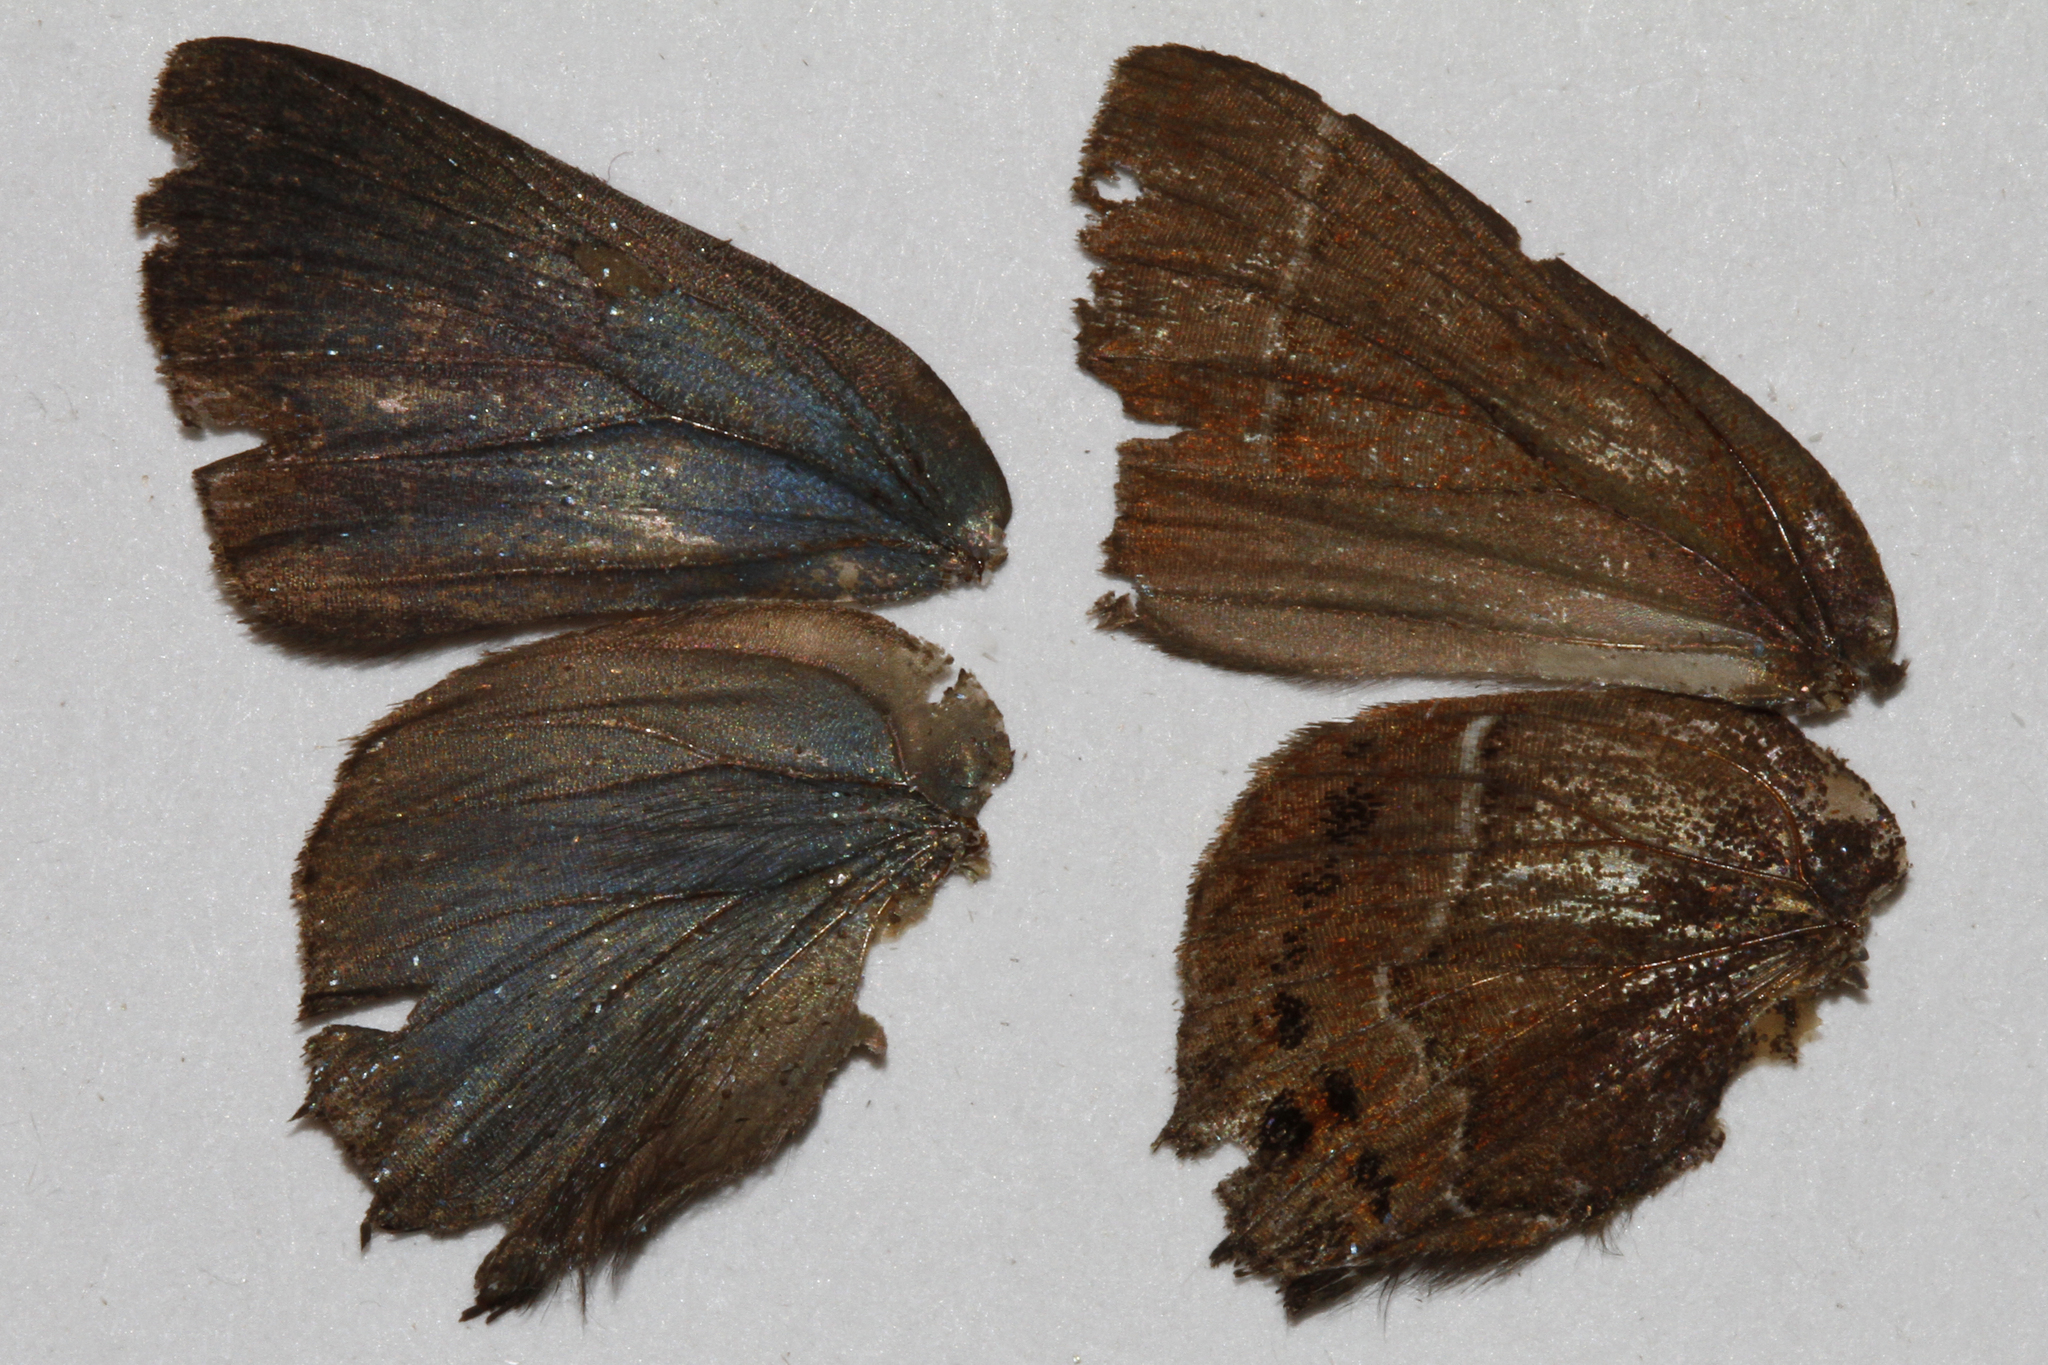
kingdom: Animalia
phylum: Arthropoda
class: Insecta
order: Lepidoptera
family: Lycaenidae
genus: Mitoura
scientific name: Mitoura spinetorum
